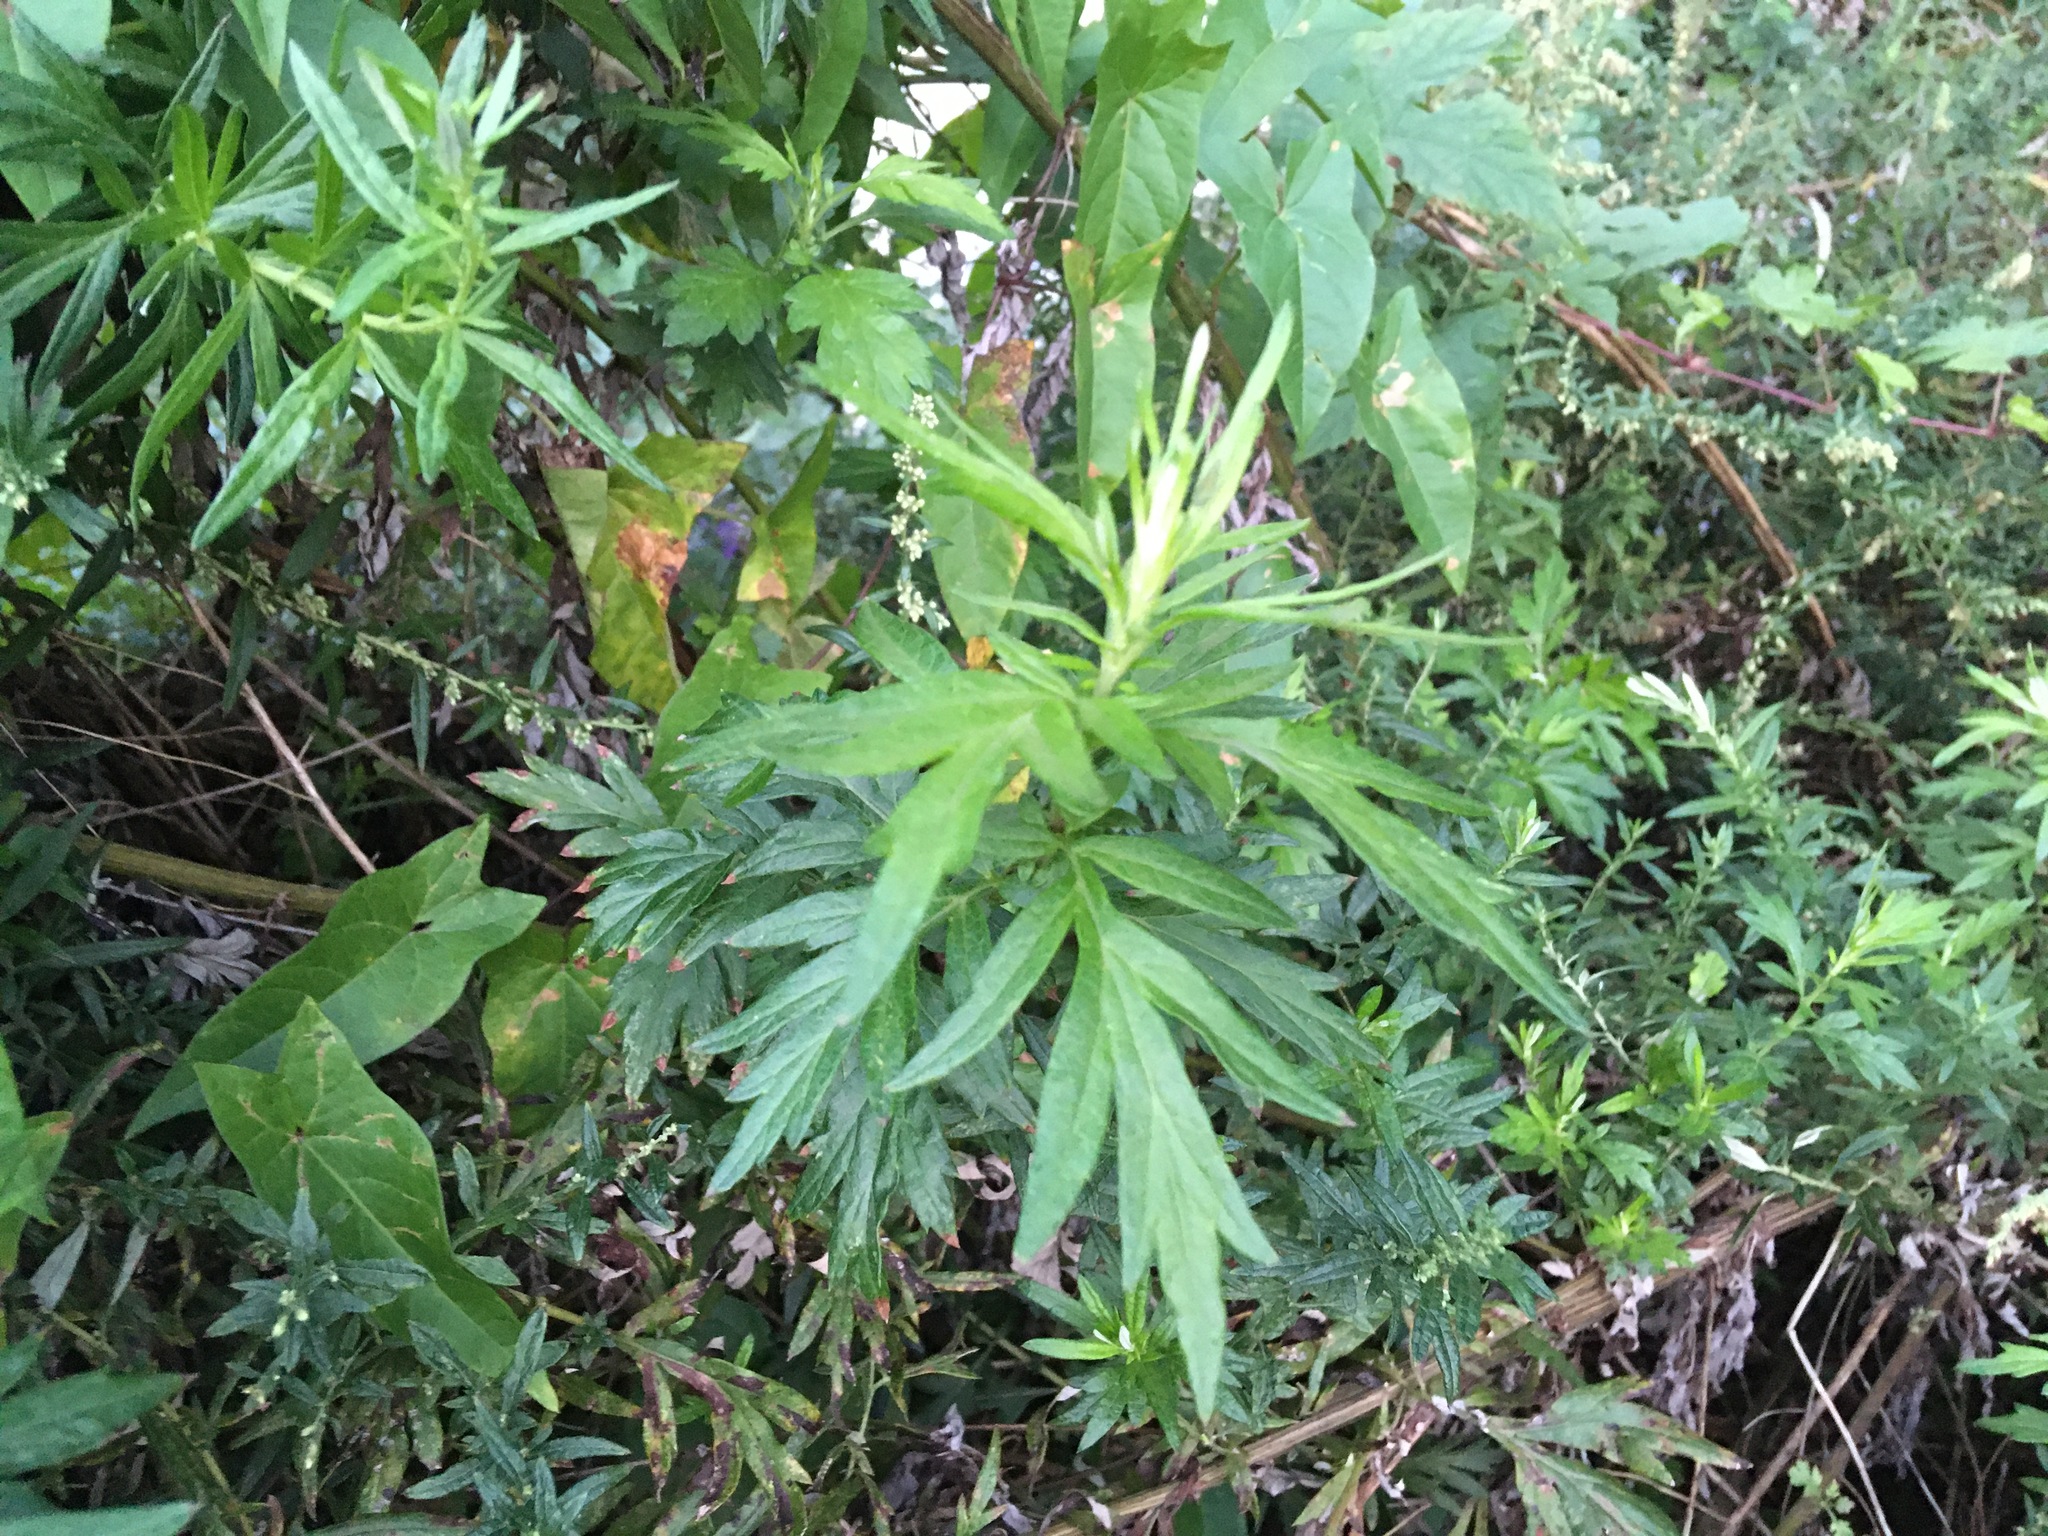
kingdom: Plantae
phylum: Tracheophyta
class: Magnoliopsida
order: Asterales
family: Asteraceae
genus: Artemisia
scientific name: Artemisia vulgaris
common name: Mugwort
